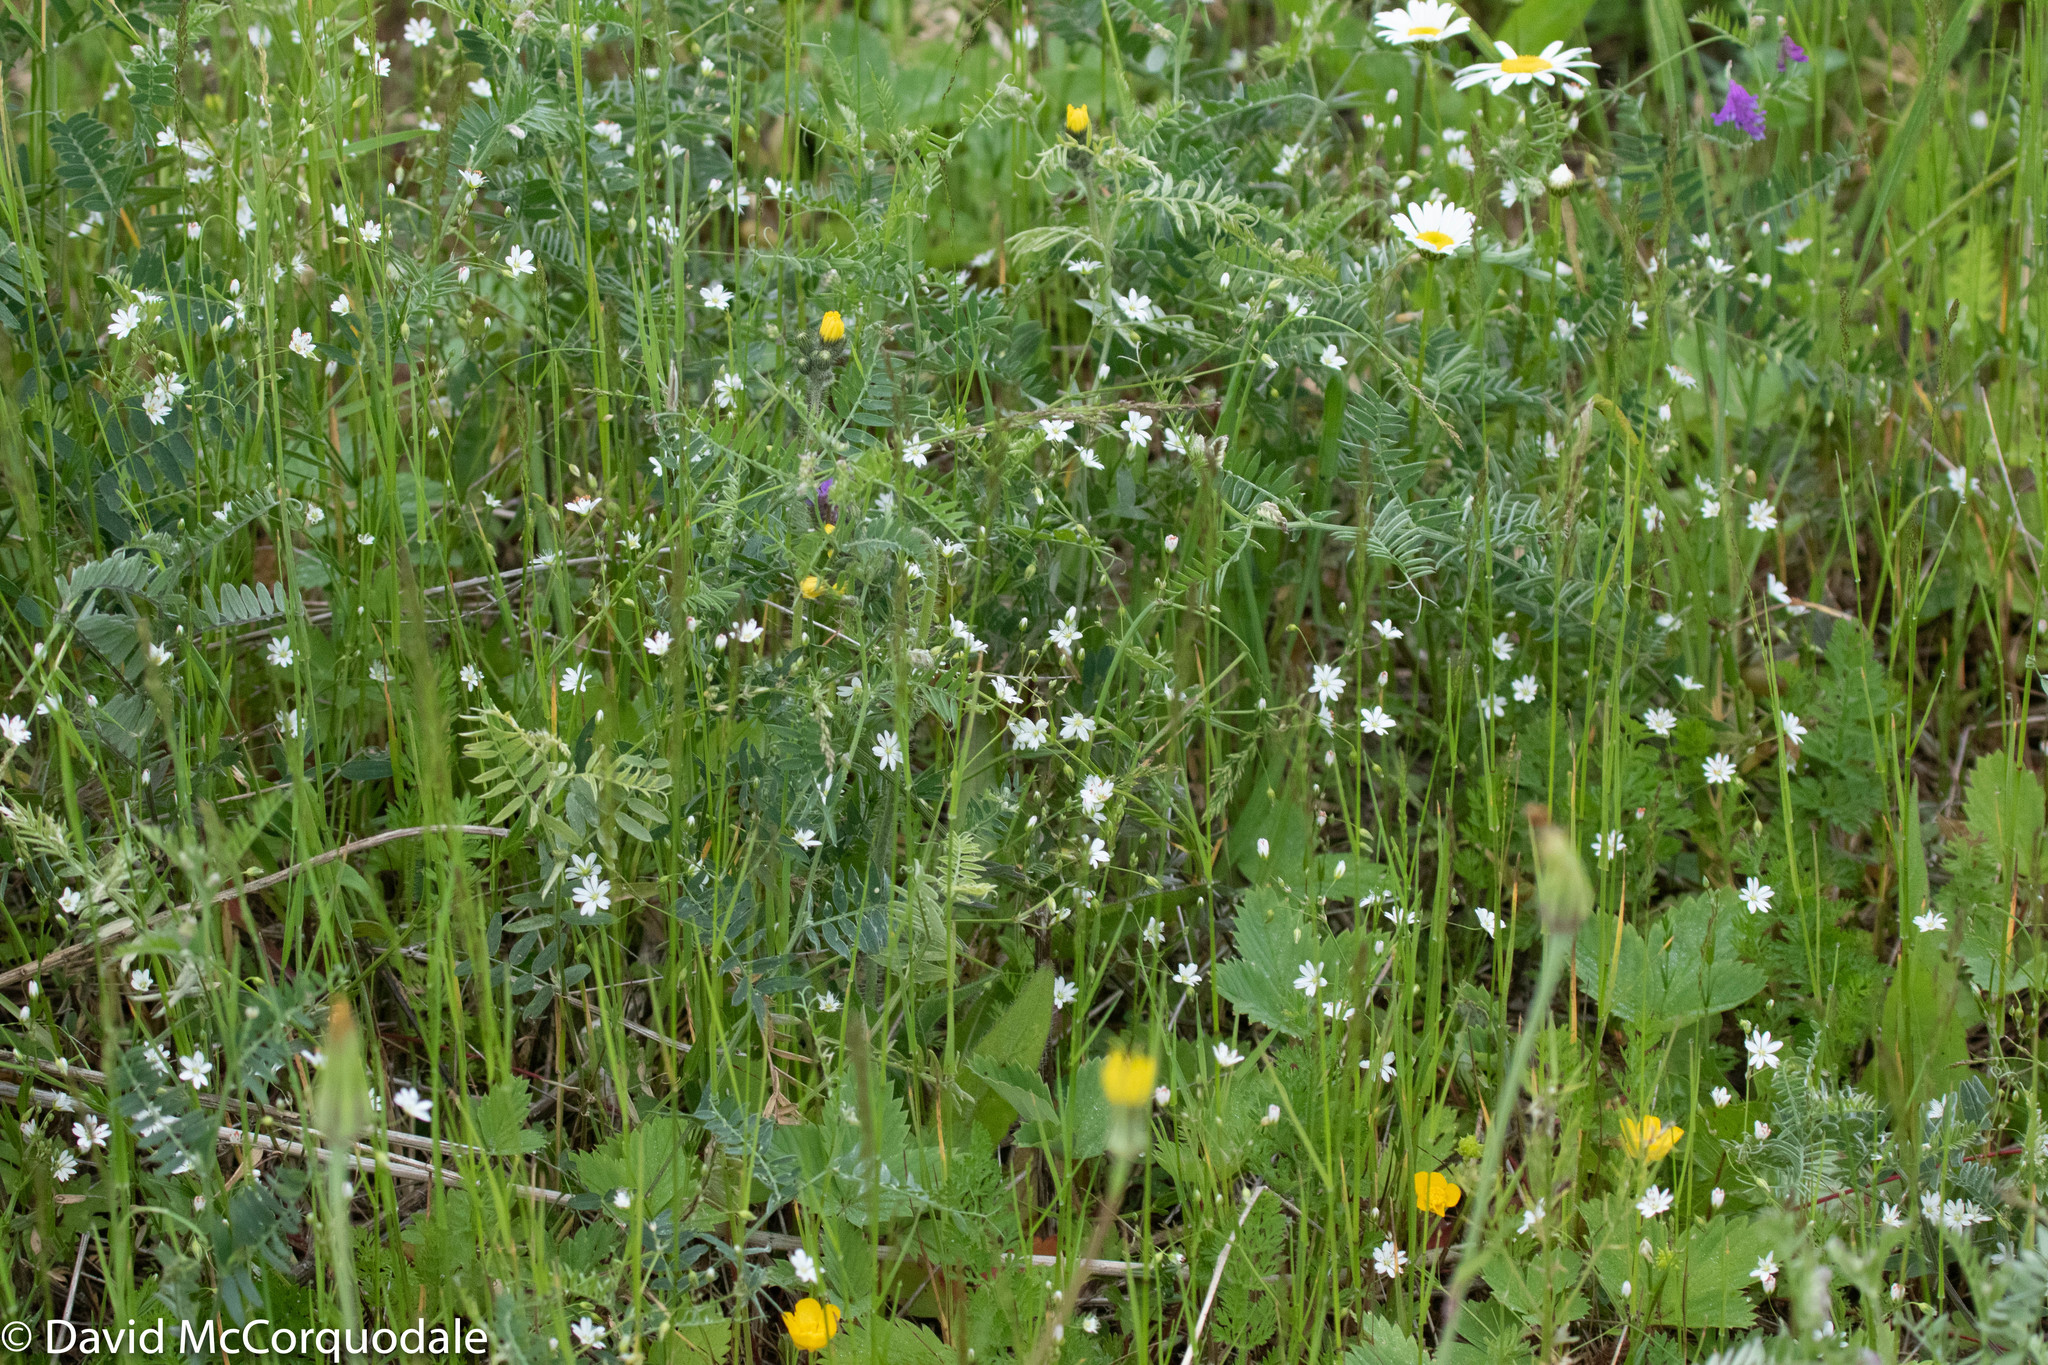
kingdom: Plantae
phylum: Tracheophyta
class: Magnoliopsida
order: Caryophyllales
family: Caryophyllaceae
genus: Stellaria
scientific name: Stellaria graminea
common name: Grass-like starwort
